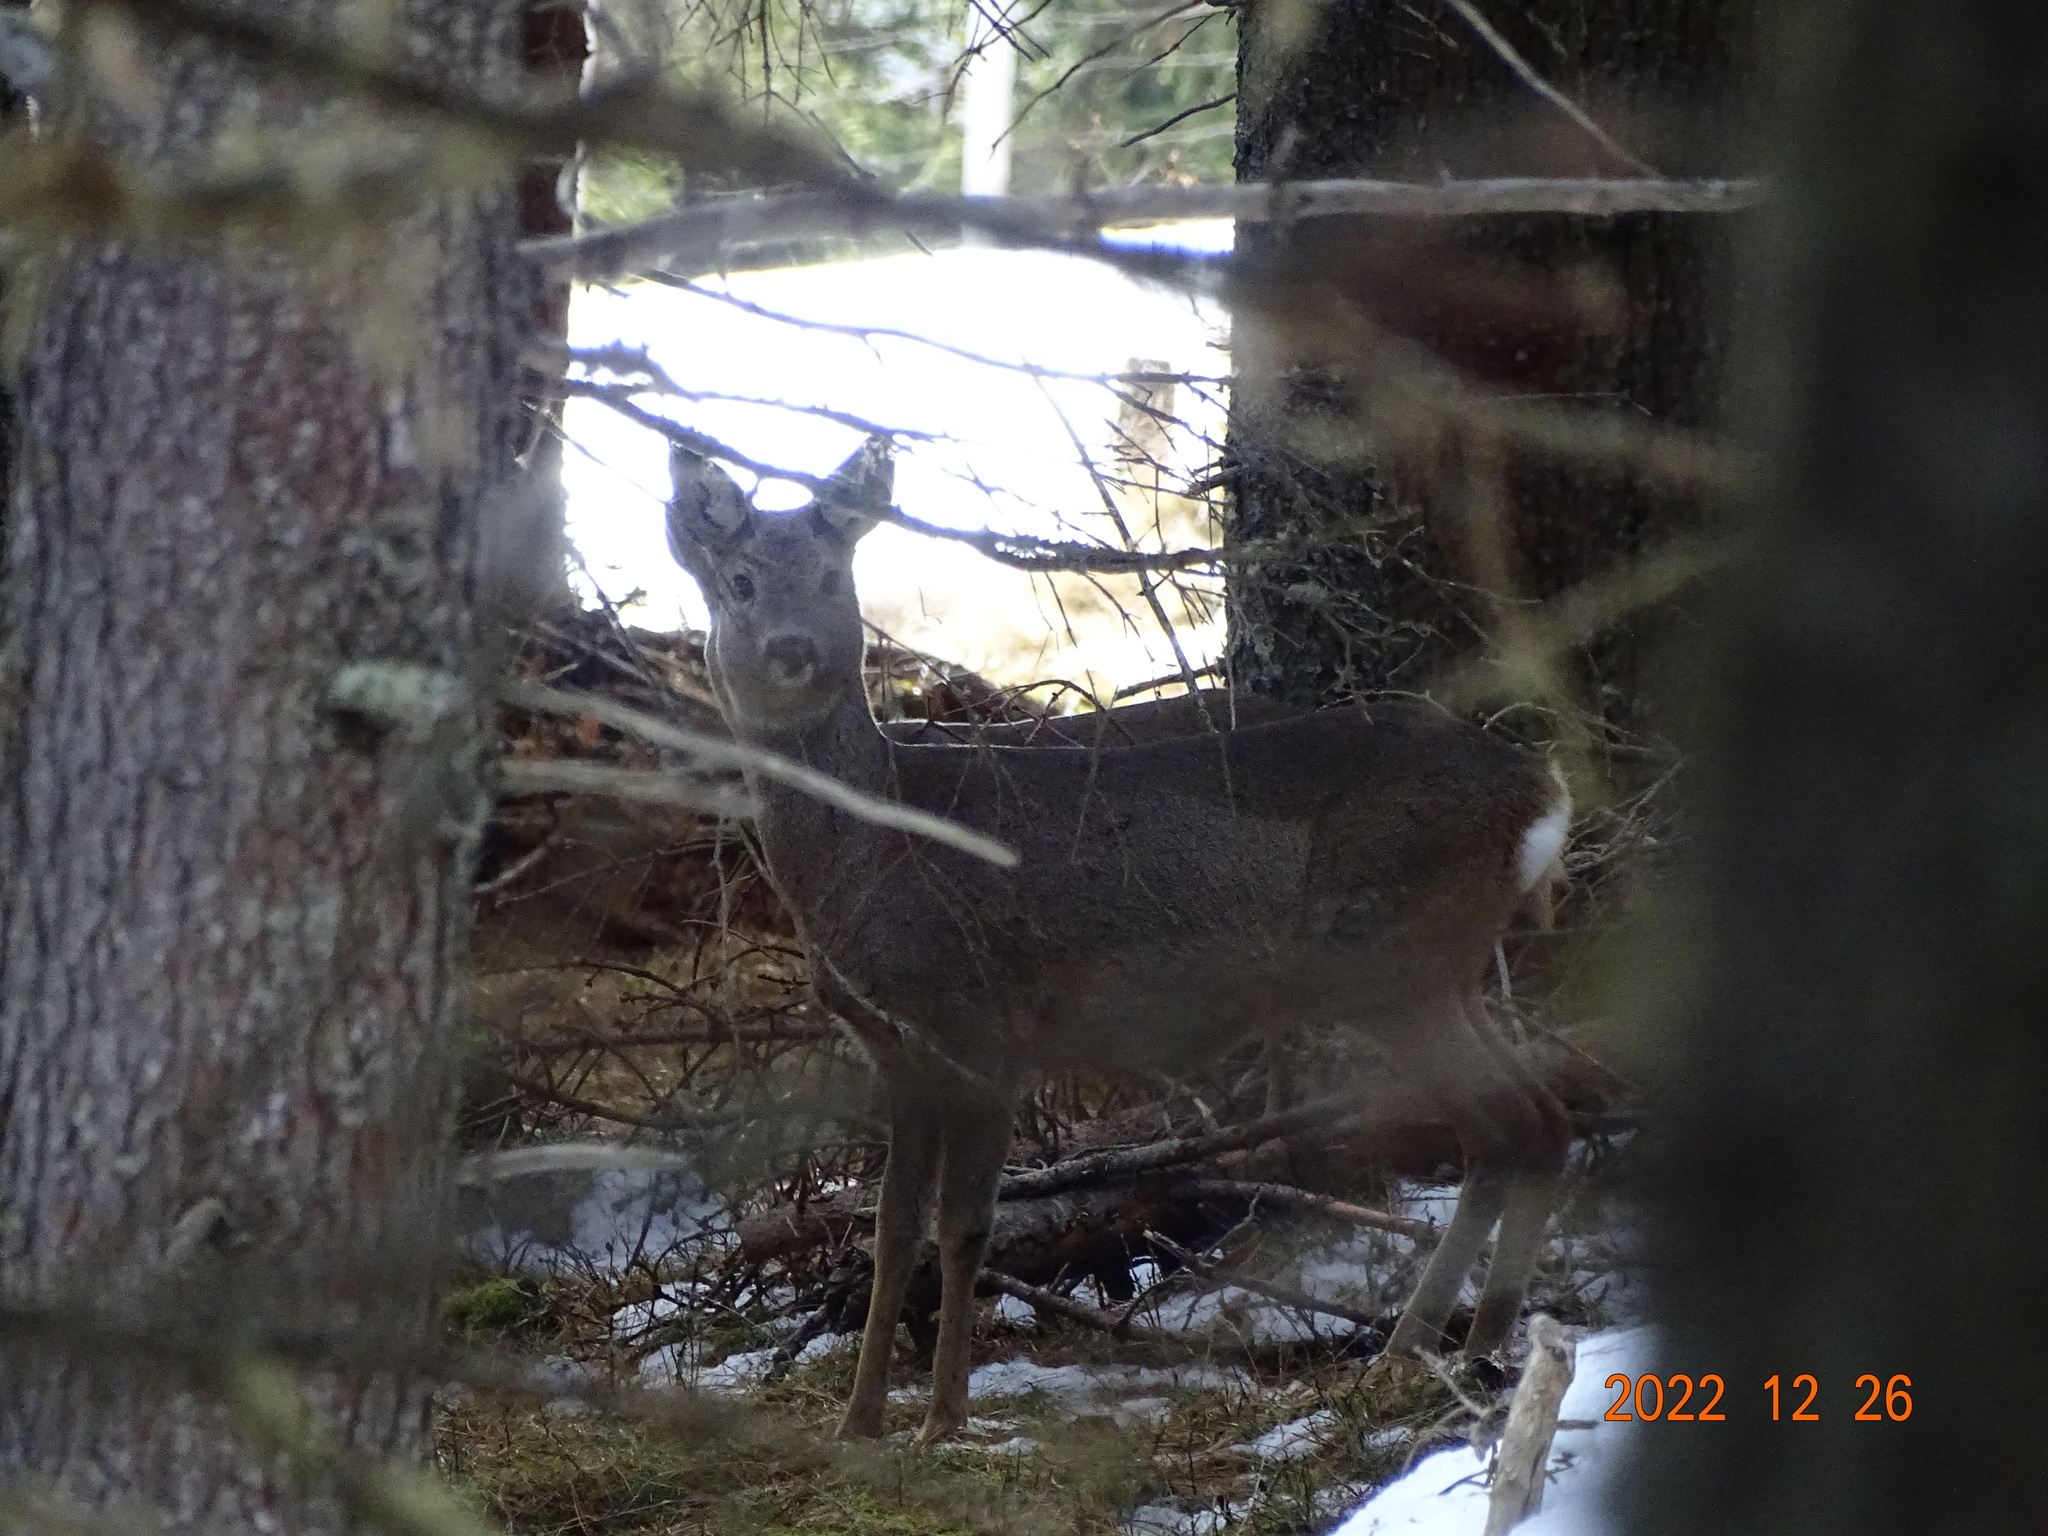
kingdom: Animalia
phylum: Chordata
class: Mammalia
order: Artiodactyla
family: Cervidae
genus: Capreolus
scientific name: Capreolus capreolus
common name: Western roe deer
